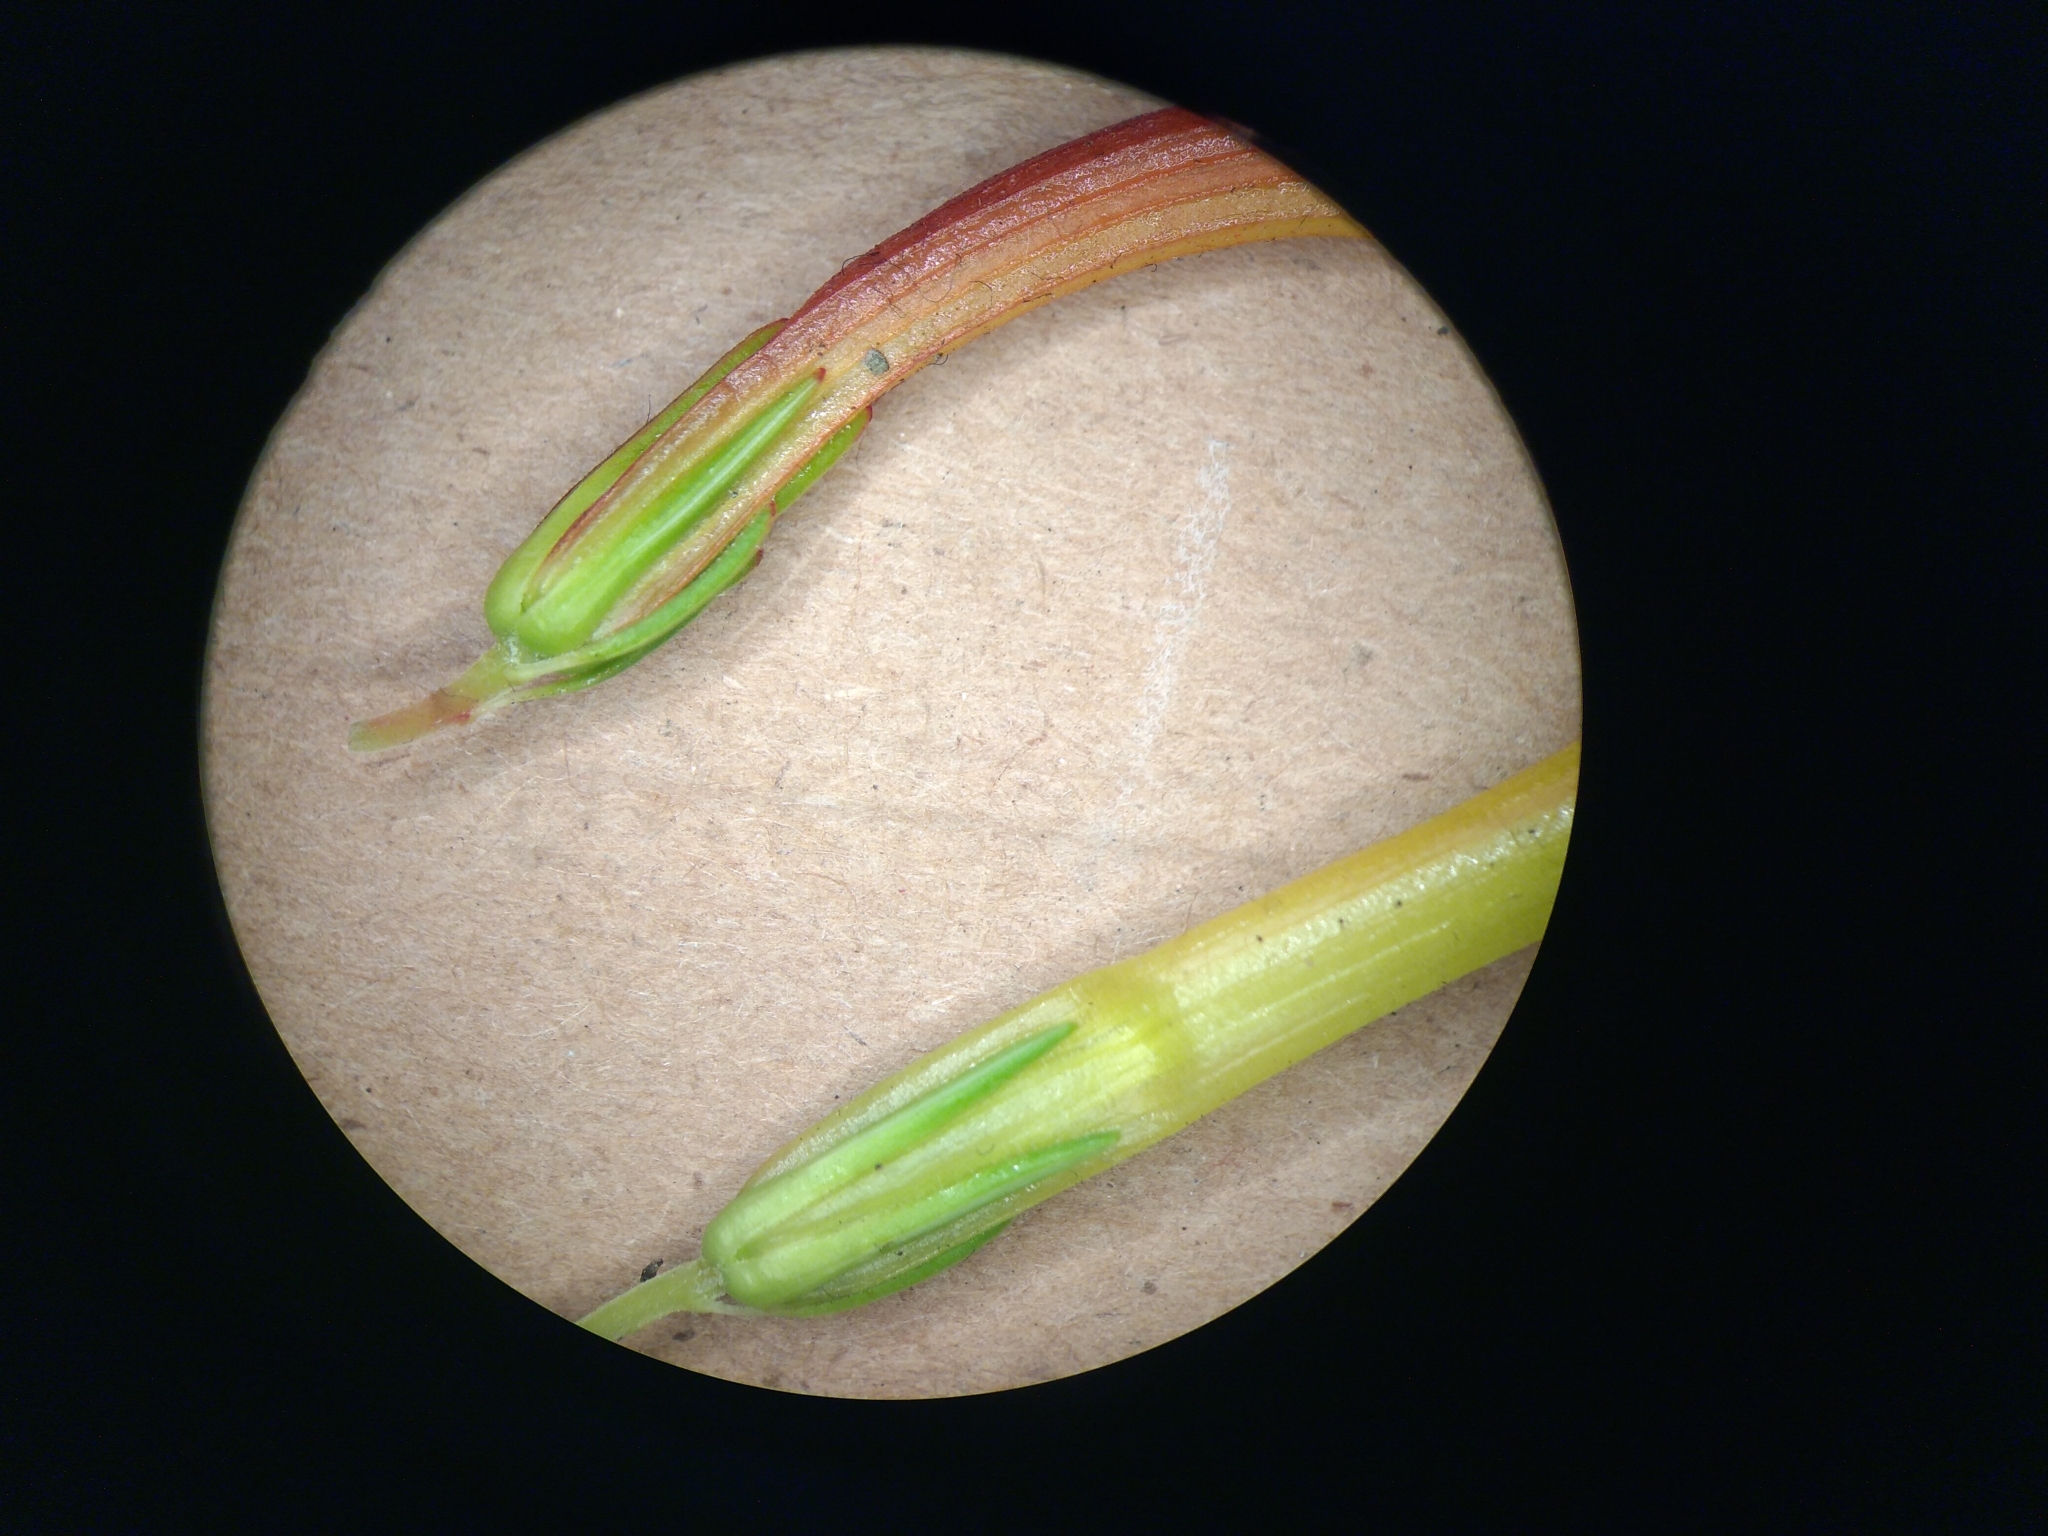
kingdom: Plantae
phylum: Tracheophyta
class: Magnoliopsida
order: Ericales
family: Ericaceae
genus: Erica
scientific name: Erica quadrisulcata
